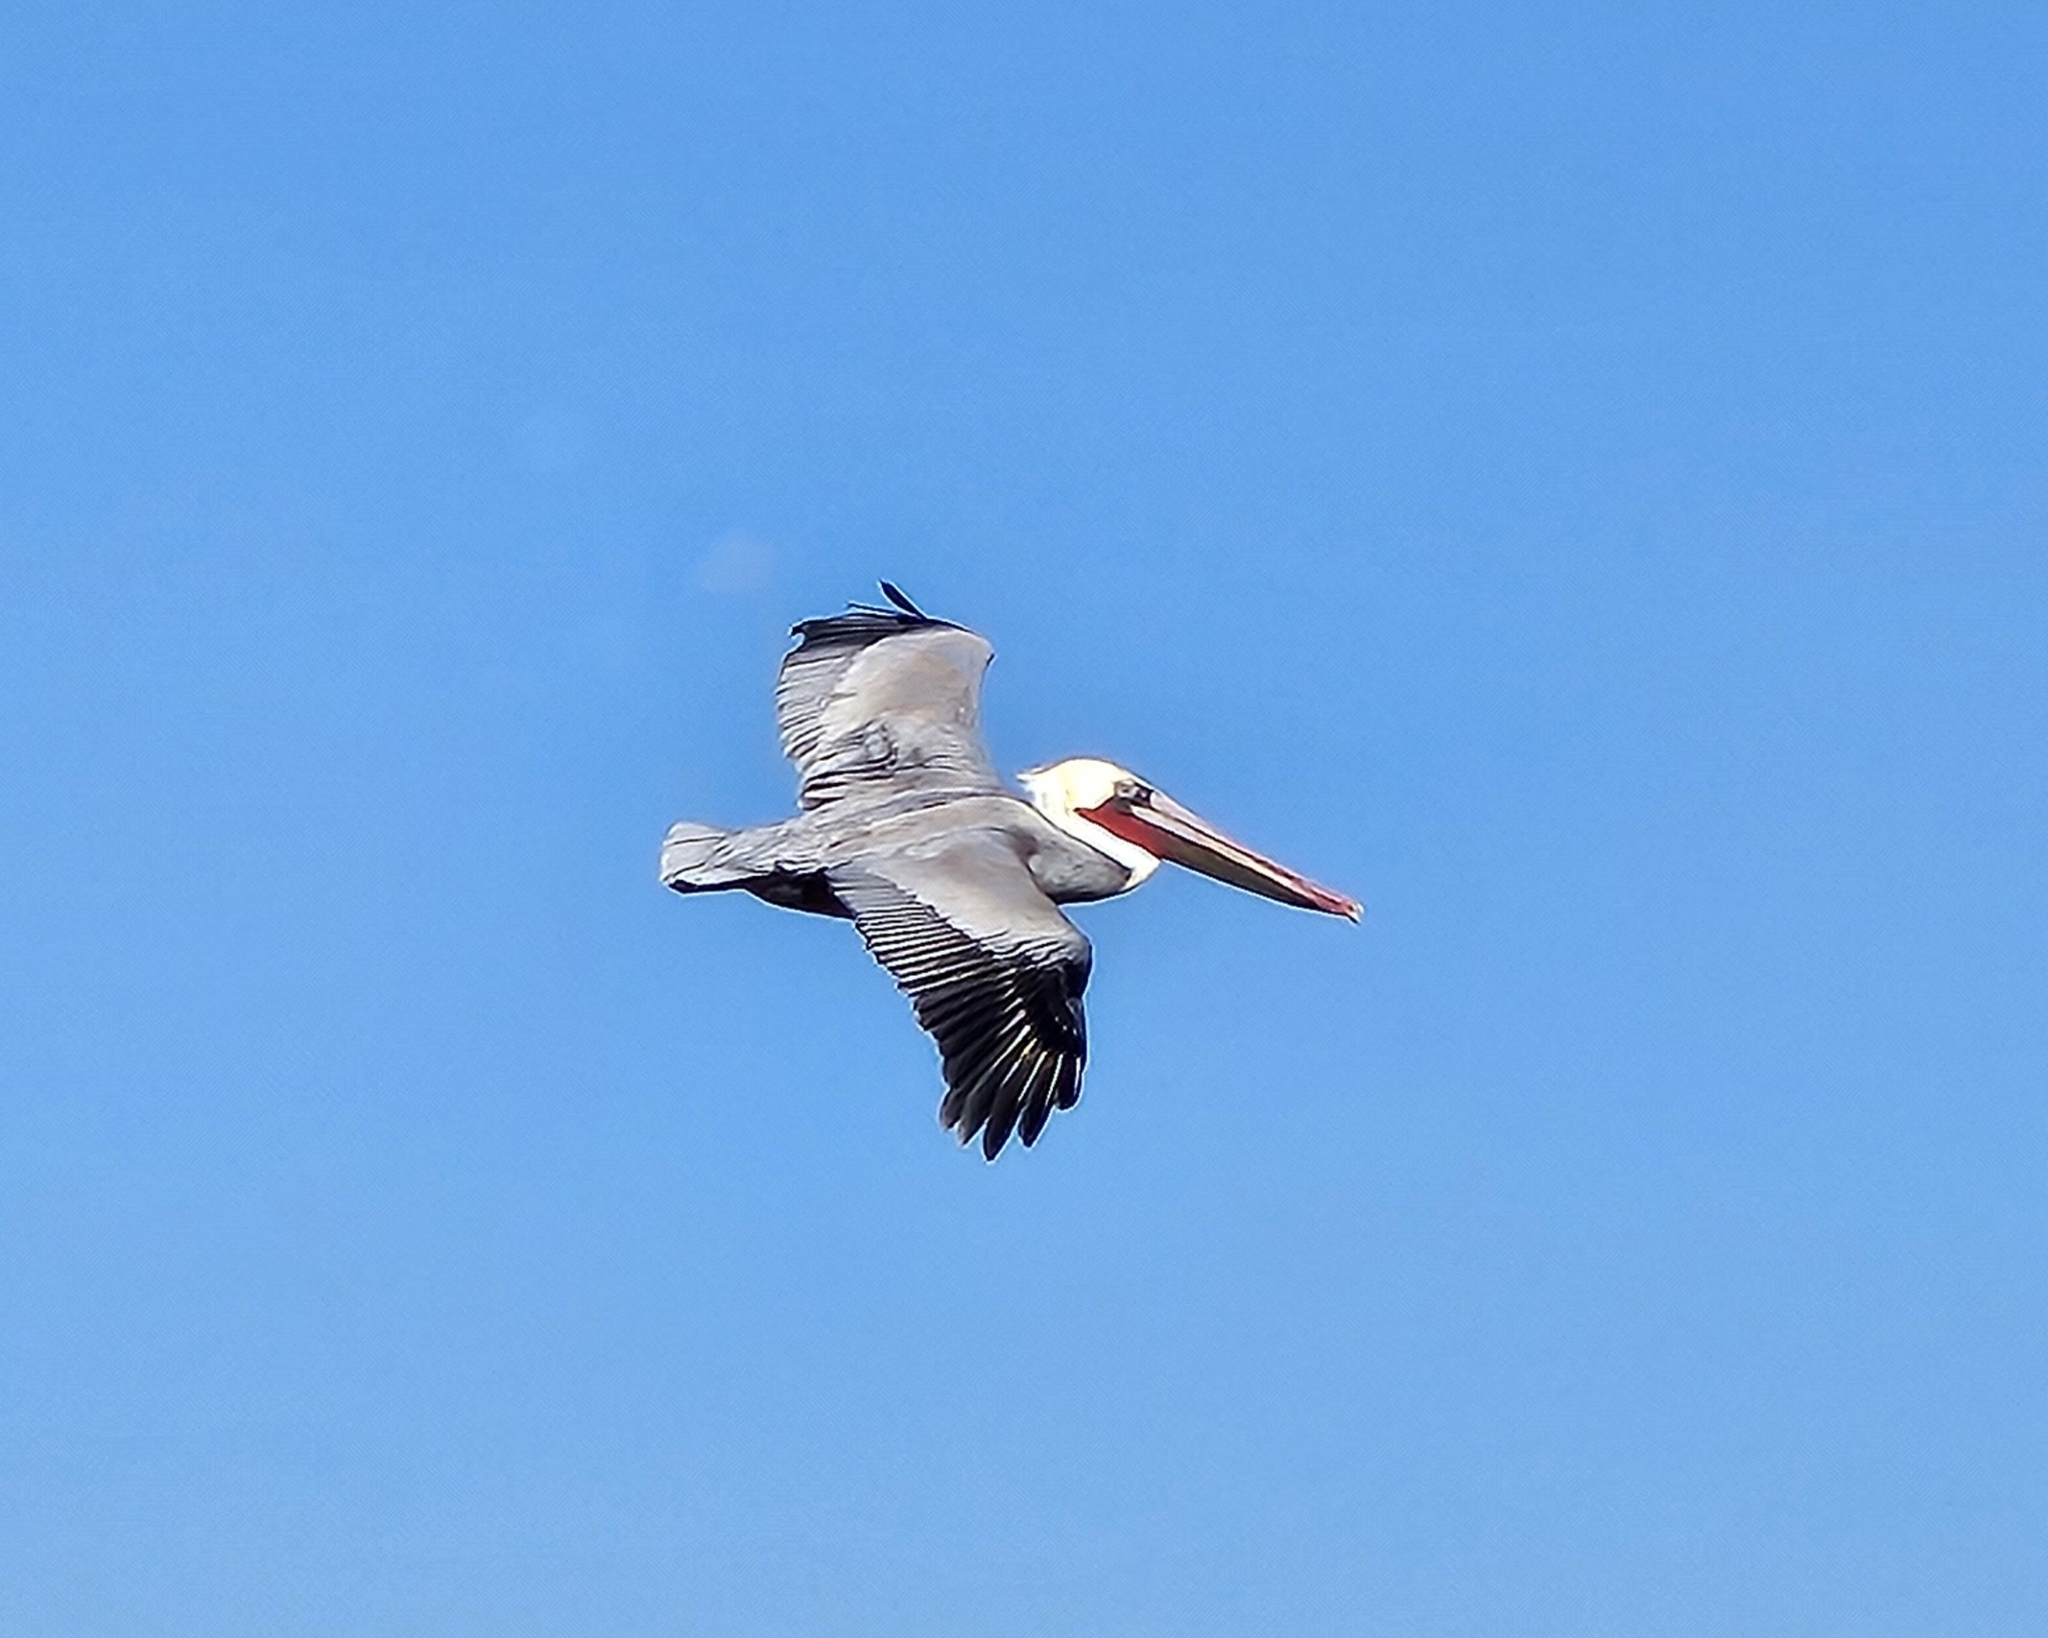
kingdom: Animalia
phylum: Chordata
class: Aves
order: Pelecaniformes
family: Pelecanidae
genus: Pelecanus
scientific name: Pelecanus occidentalis
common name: Brown pelican
